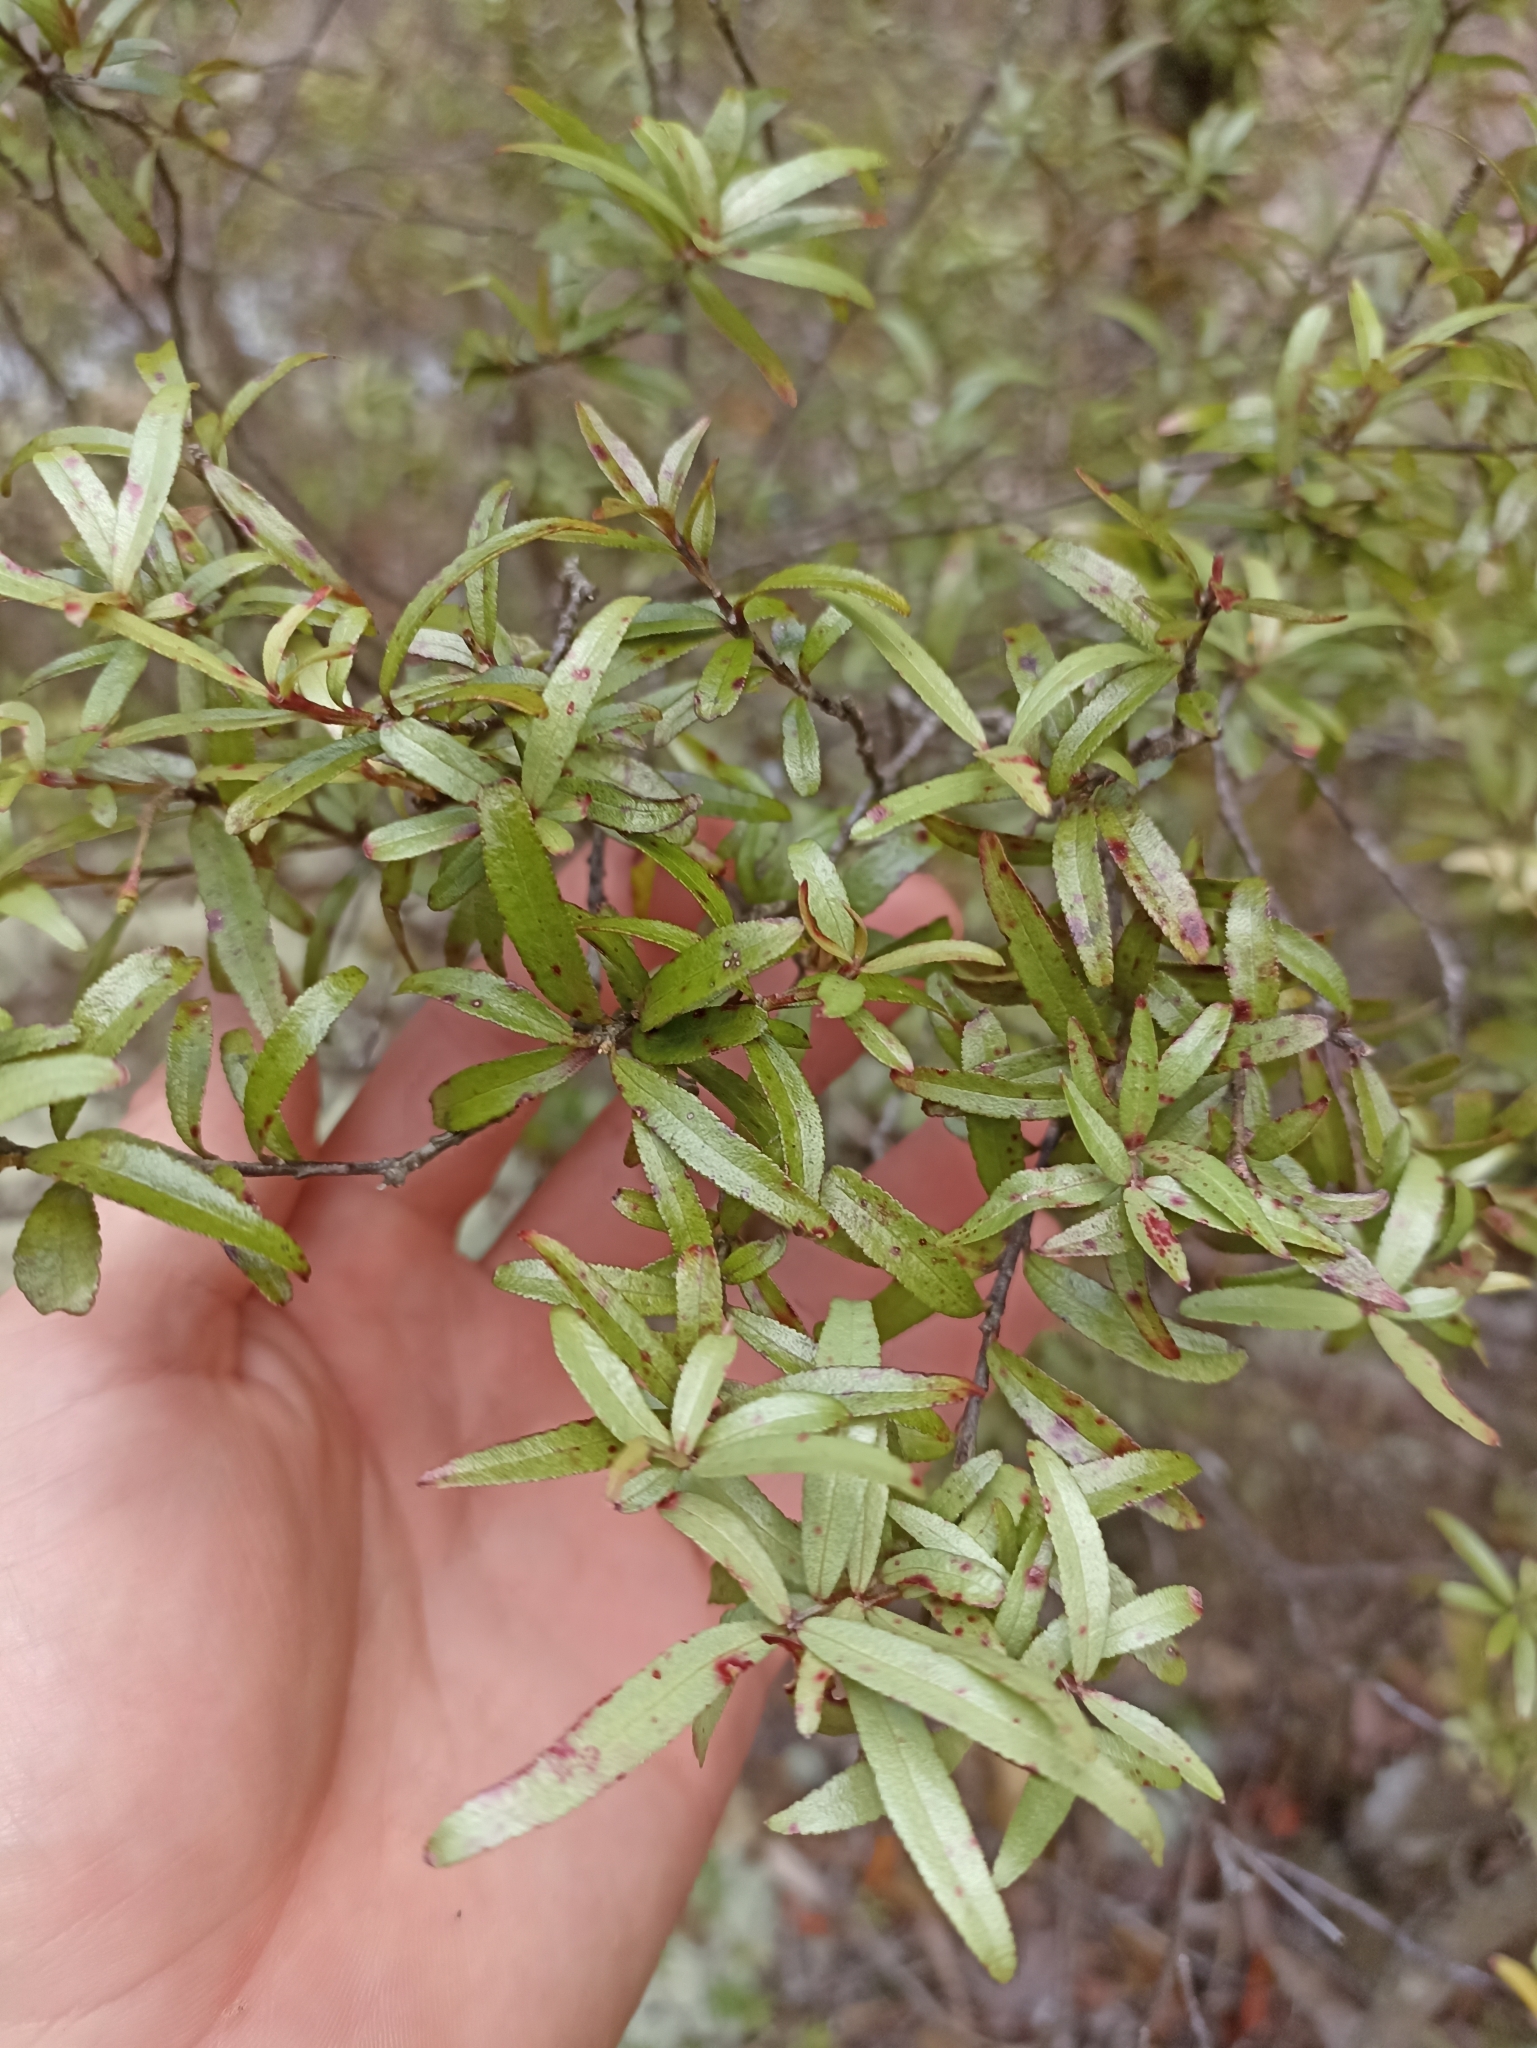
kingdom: Plantae
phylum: Tracheophyta
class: Magnoliopsida
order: Sapindales
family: Rutaceae
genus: Leionema
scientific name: Leionema nudum
